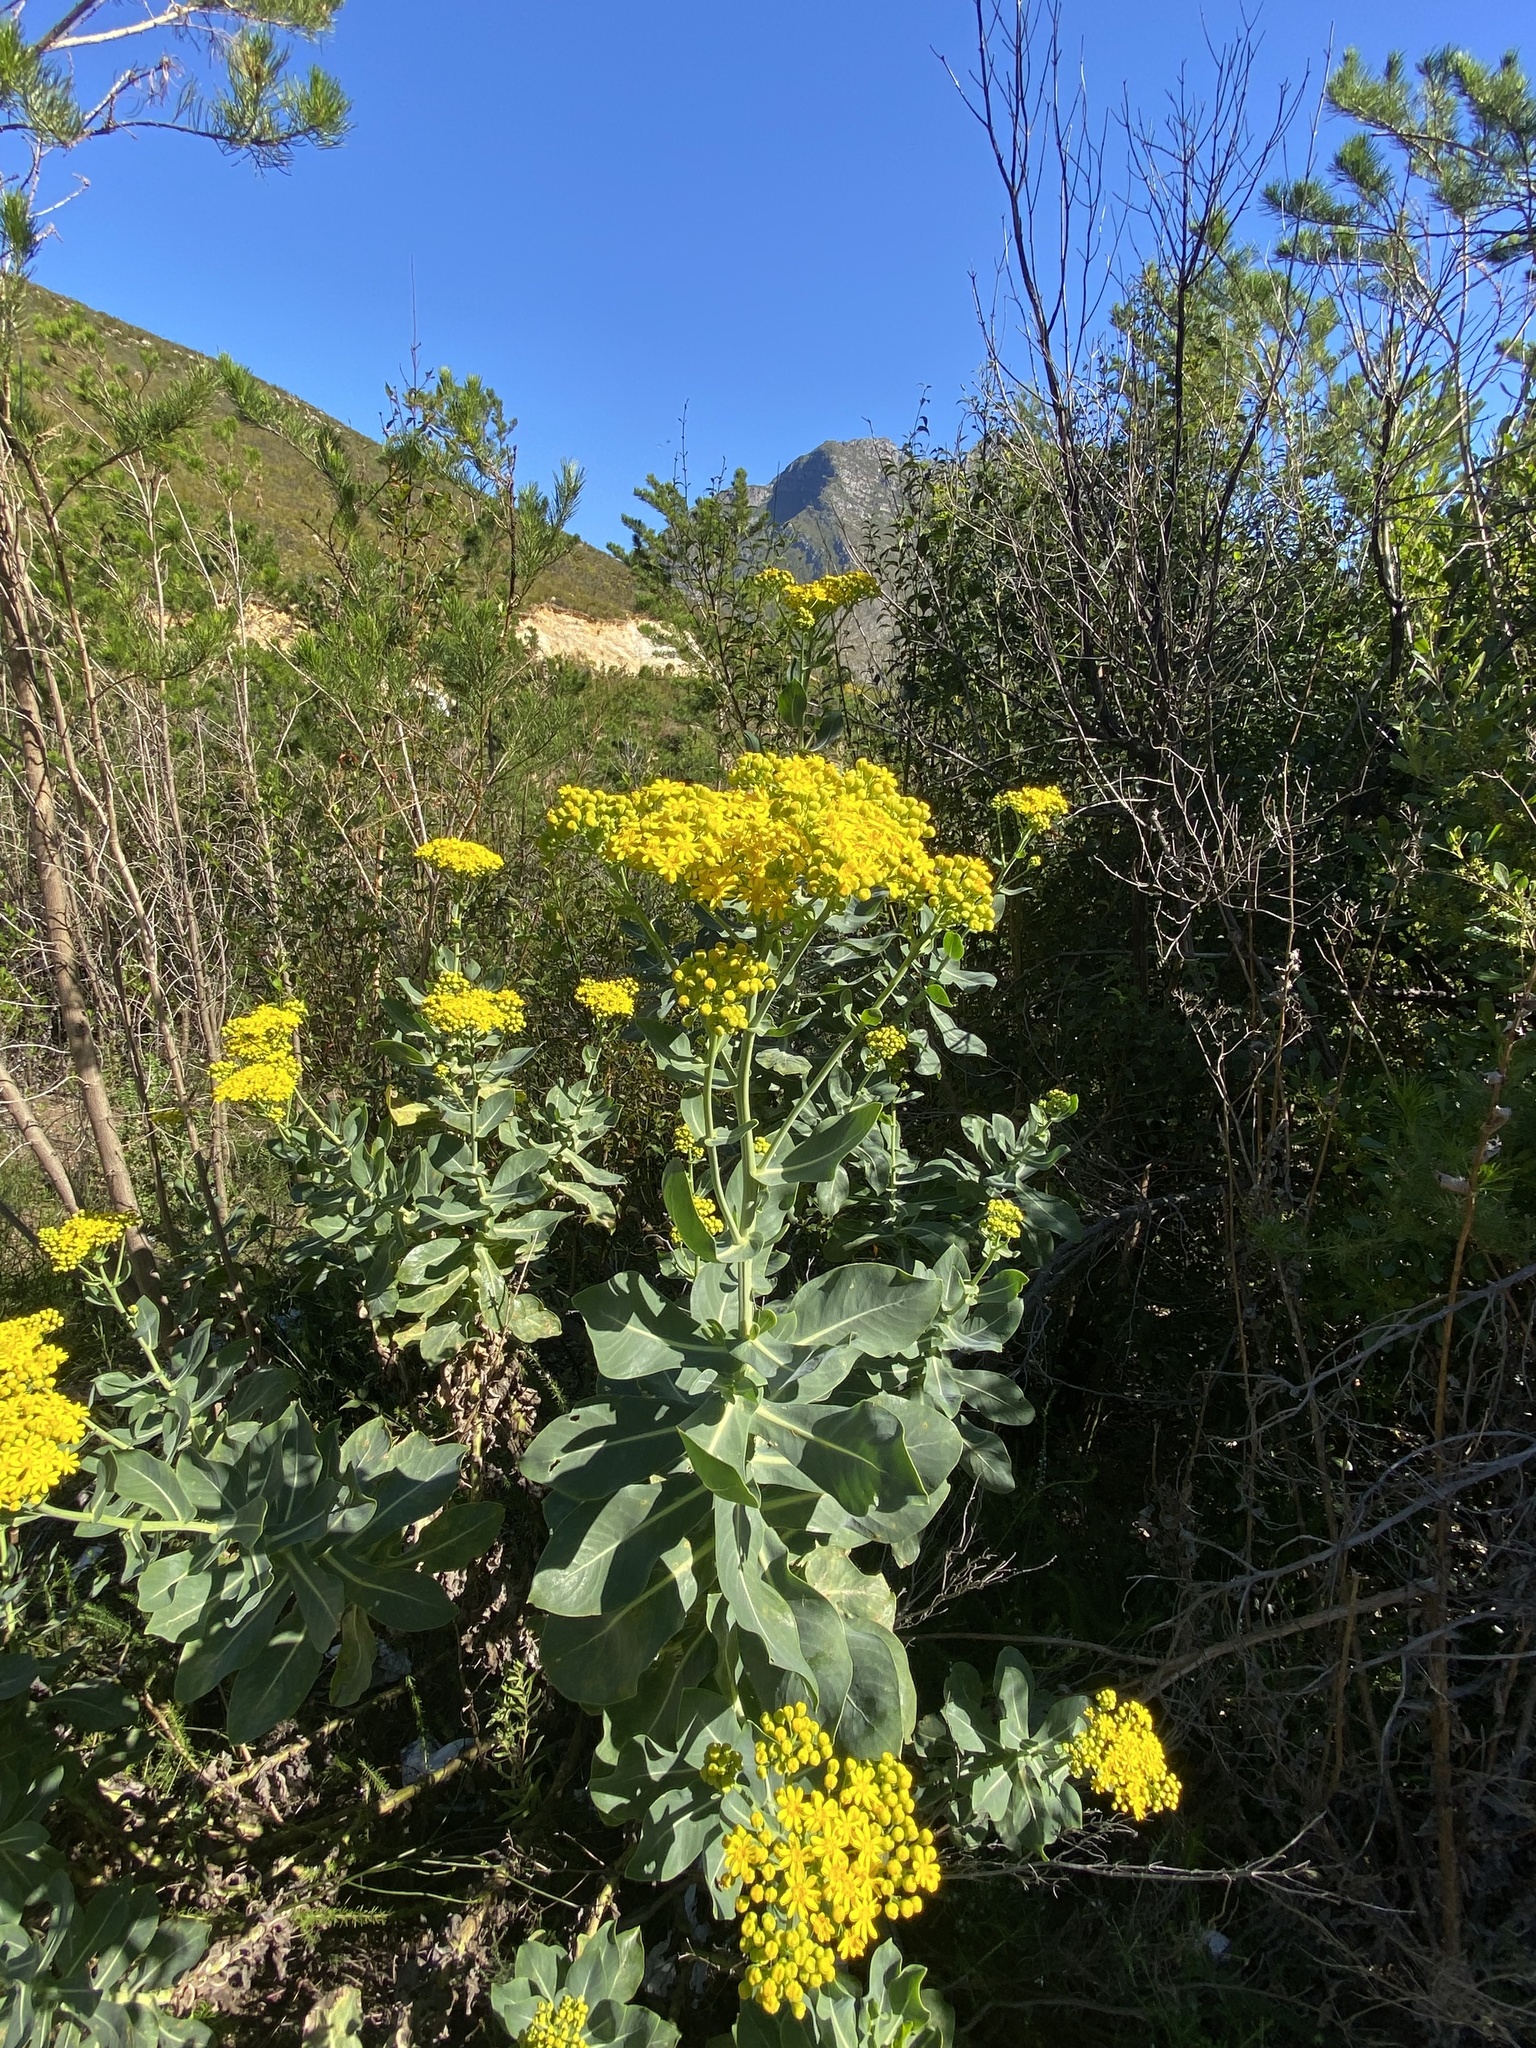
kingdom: Plantae
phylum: Tracheophyta
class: Magnoliopsida
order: Asterales
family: Asteraceae
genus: Othonna
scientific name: Othonna parviflora
